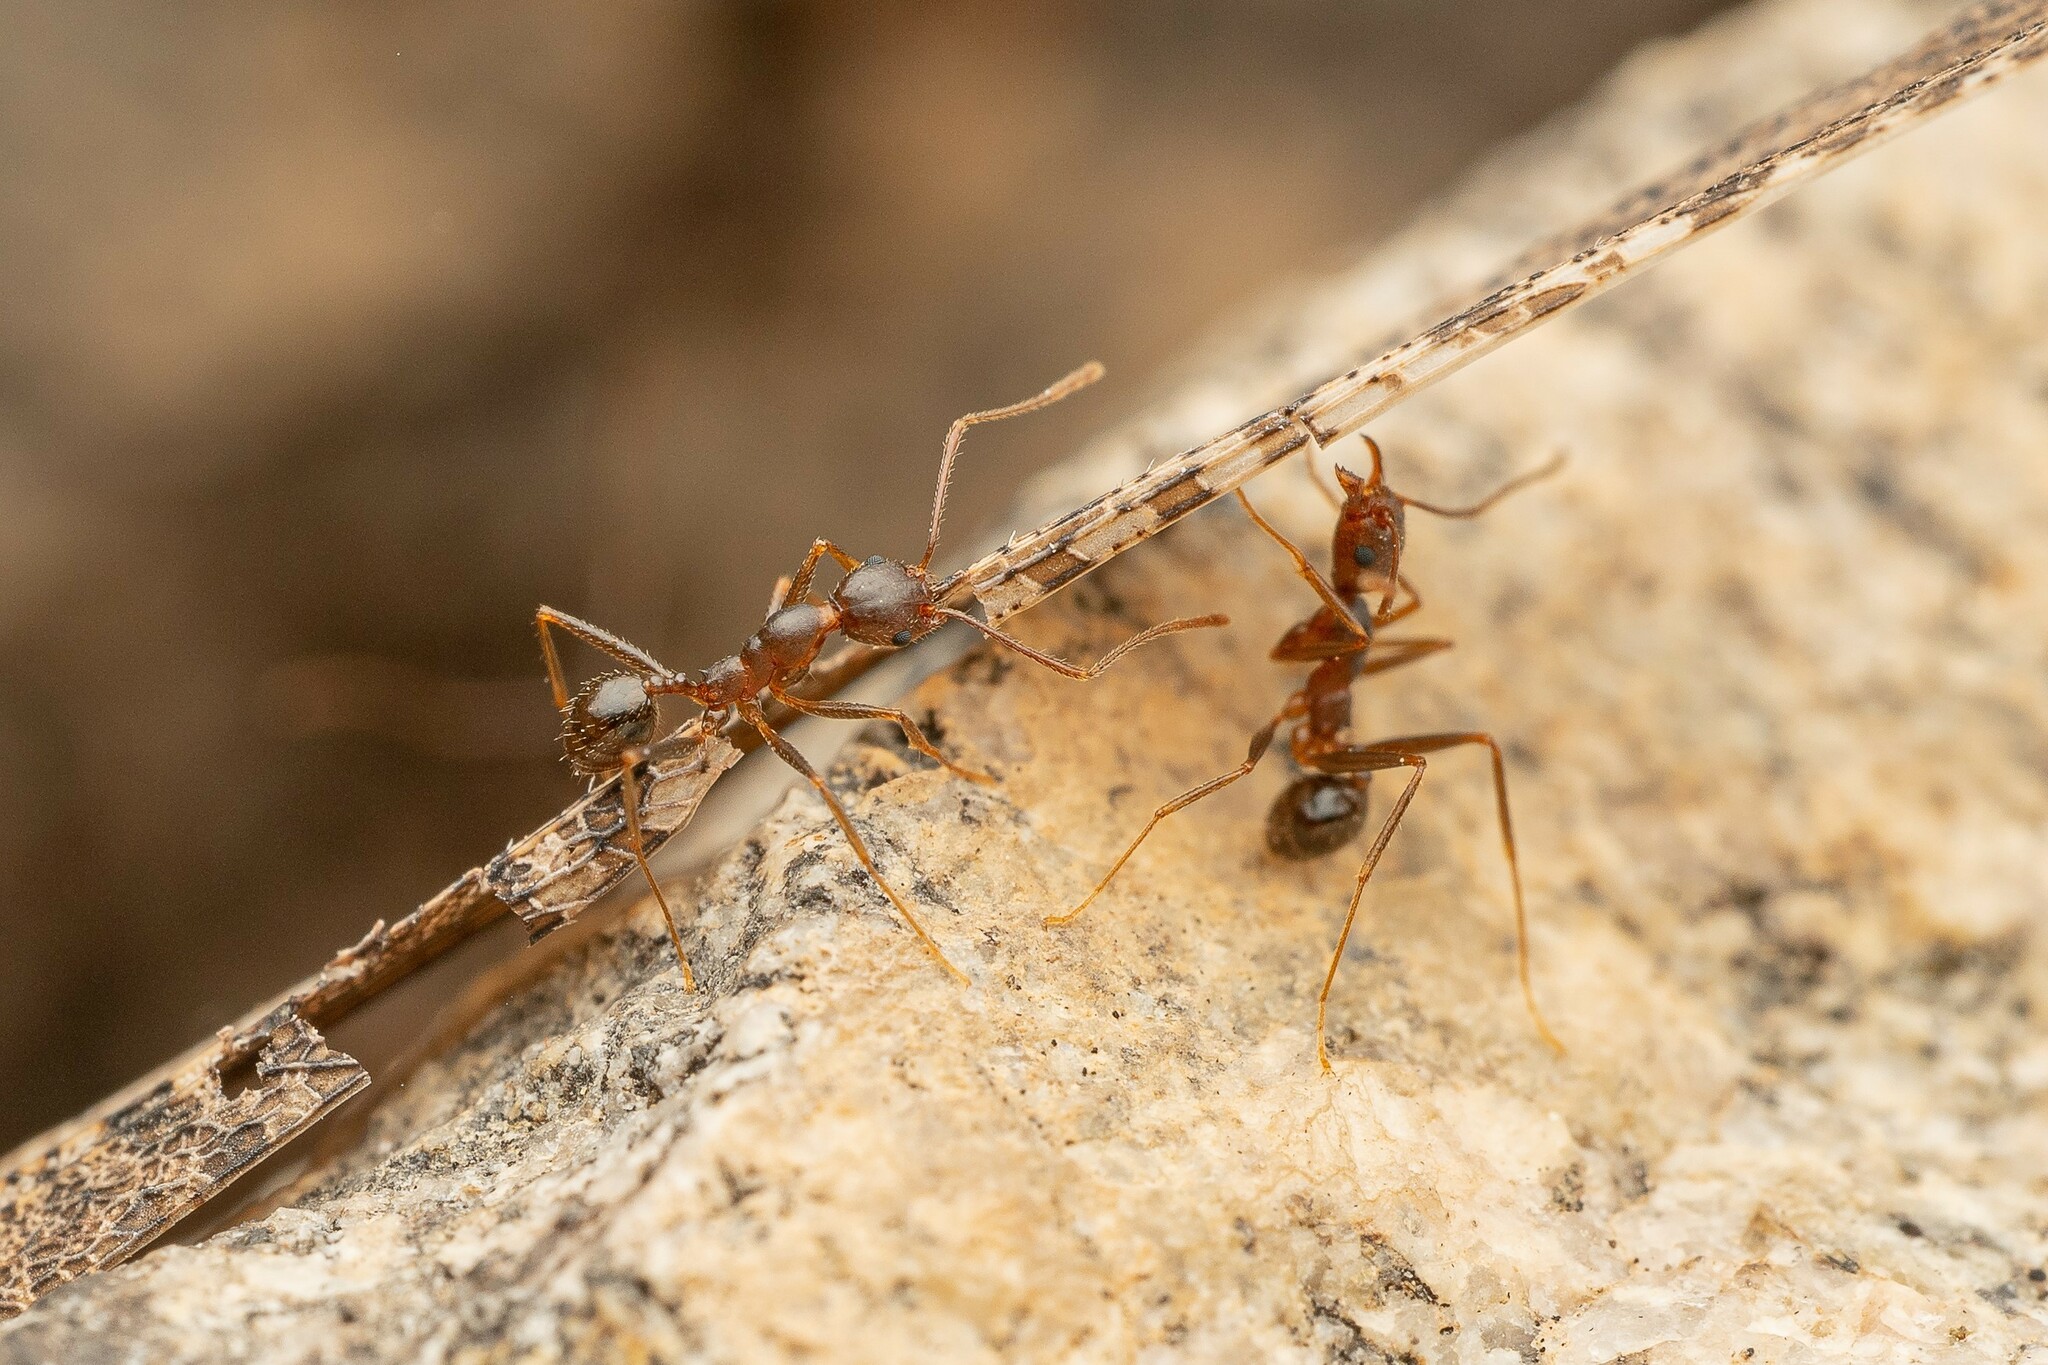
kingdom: Animalia
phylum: Arthropoda
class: Insecta
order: Hymenoptera
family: Formicidae
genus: Pheidole
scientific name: Pheidole portalensis
